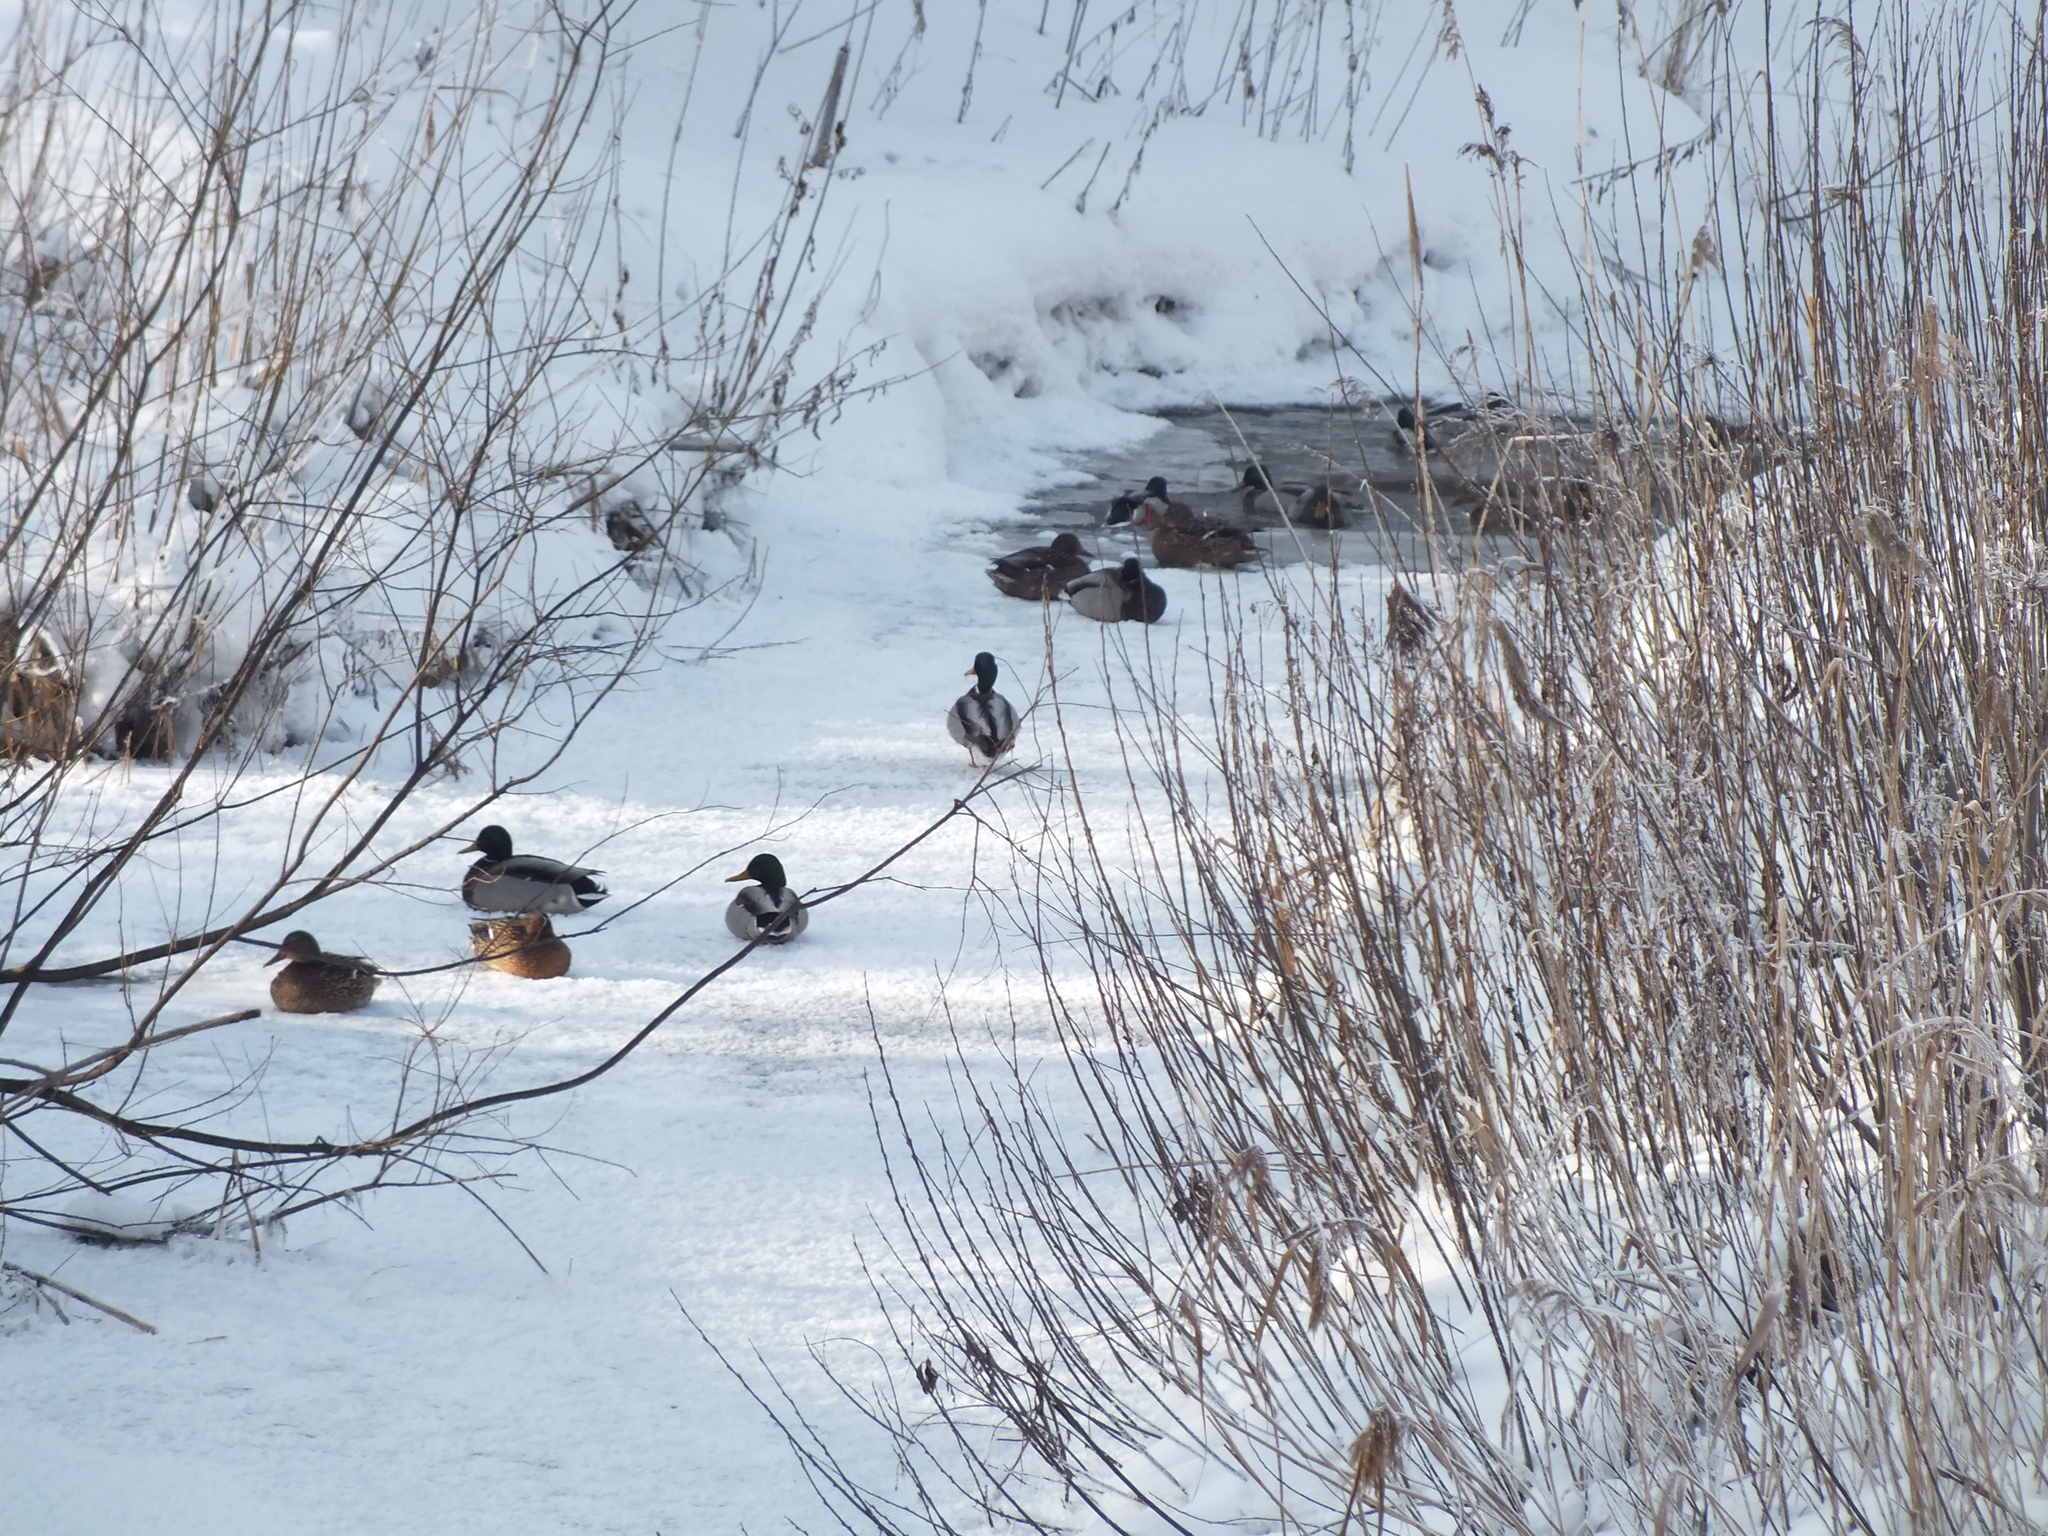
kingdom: Animalia
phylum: Chordata
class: Aves
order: Anseriformes
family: Anatidae
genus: Anas
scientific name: Anas platyrhynchos
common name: Mallard
